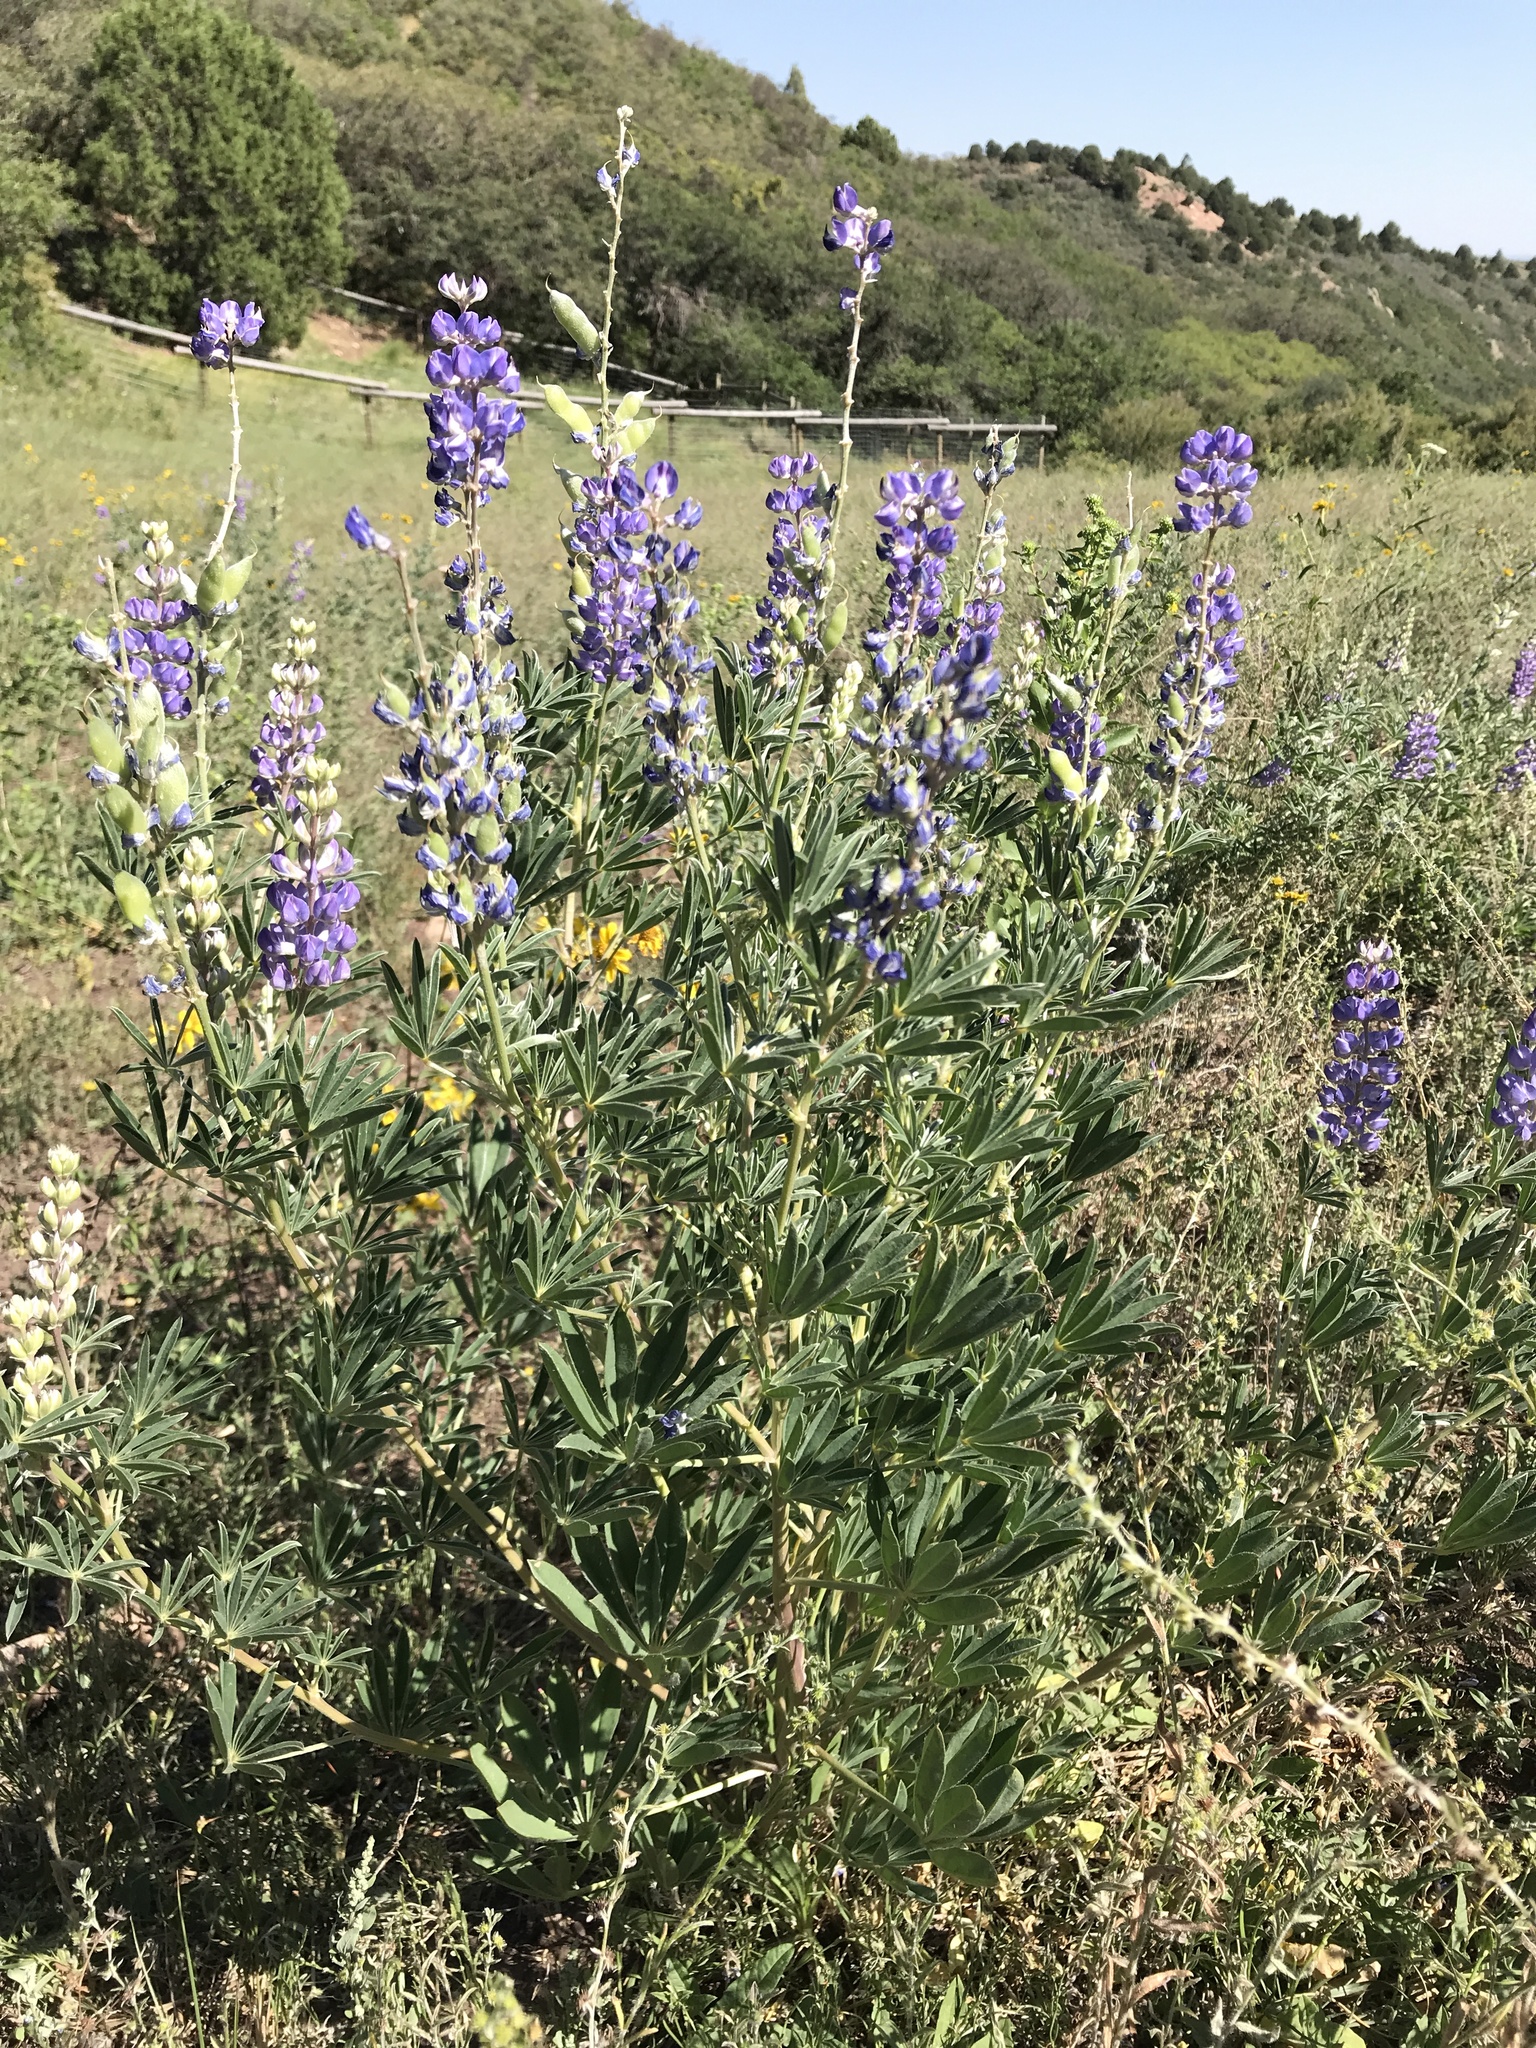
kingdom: Plantae
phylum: Tracheophyta
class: Magnoliopsida
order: Fabales
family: Fabaceae
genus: Lupinus
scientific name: Lupinus argenteus
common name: Silvery lupine
